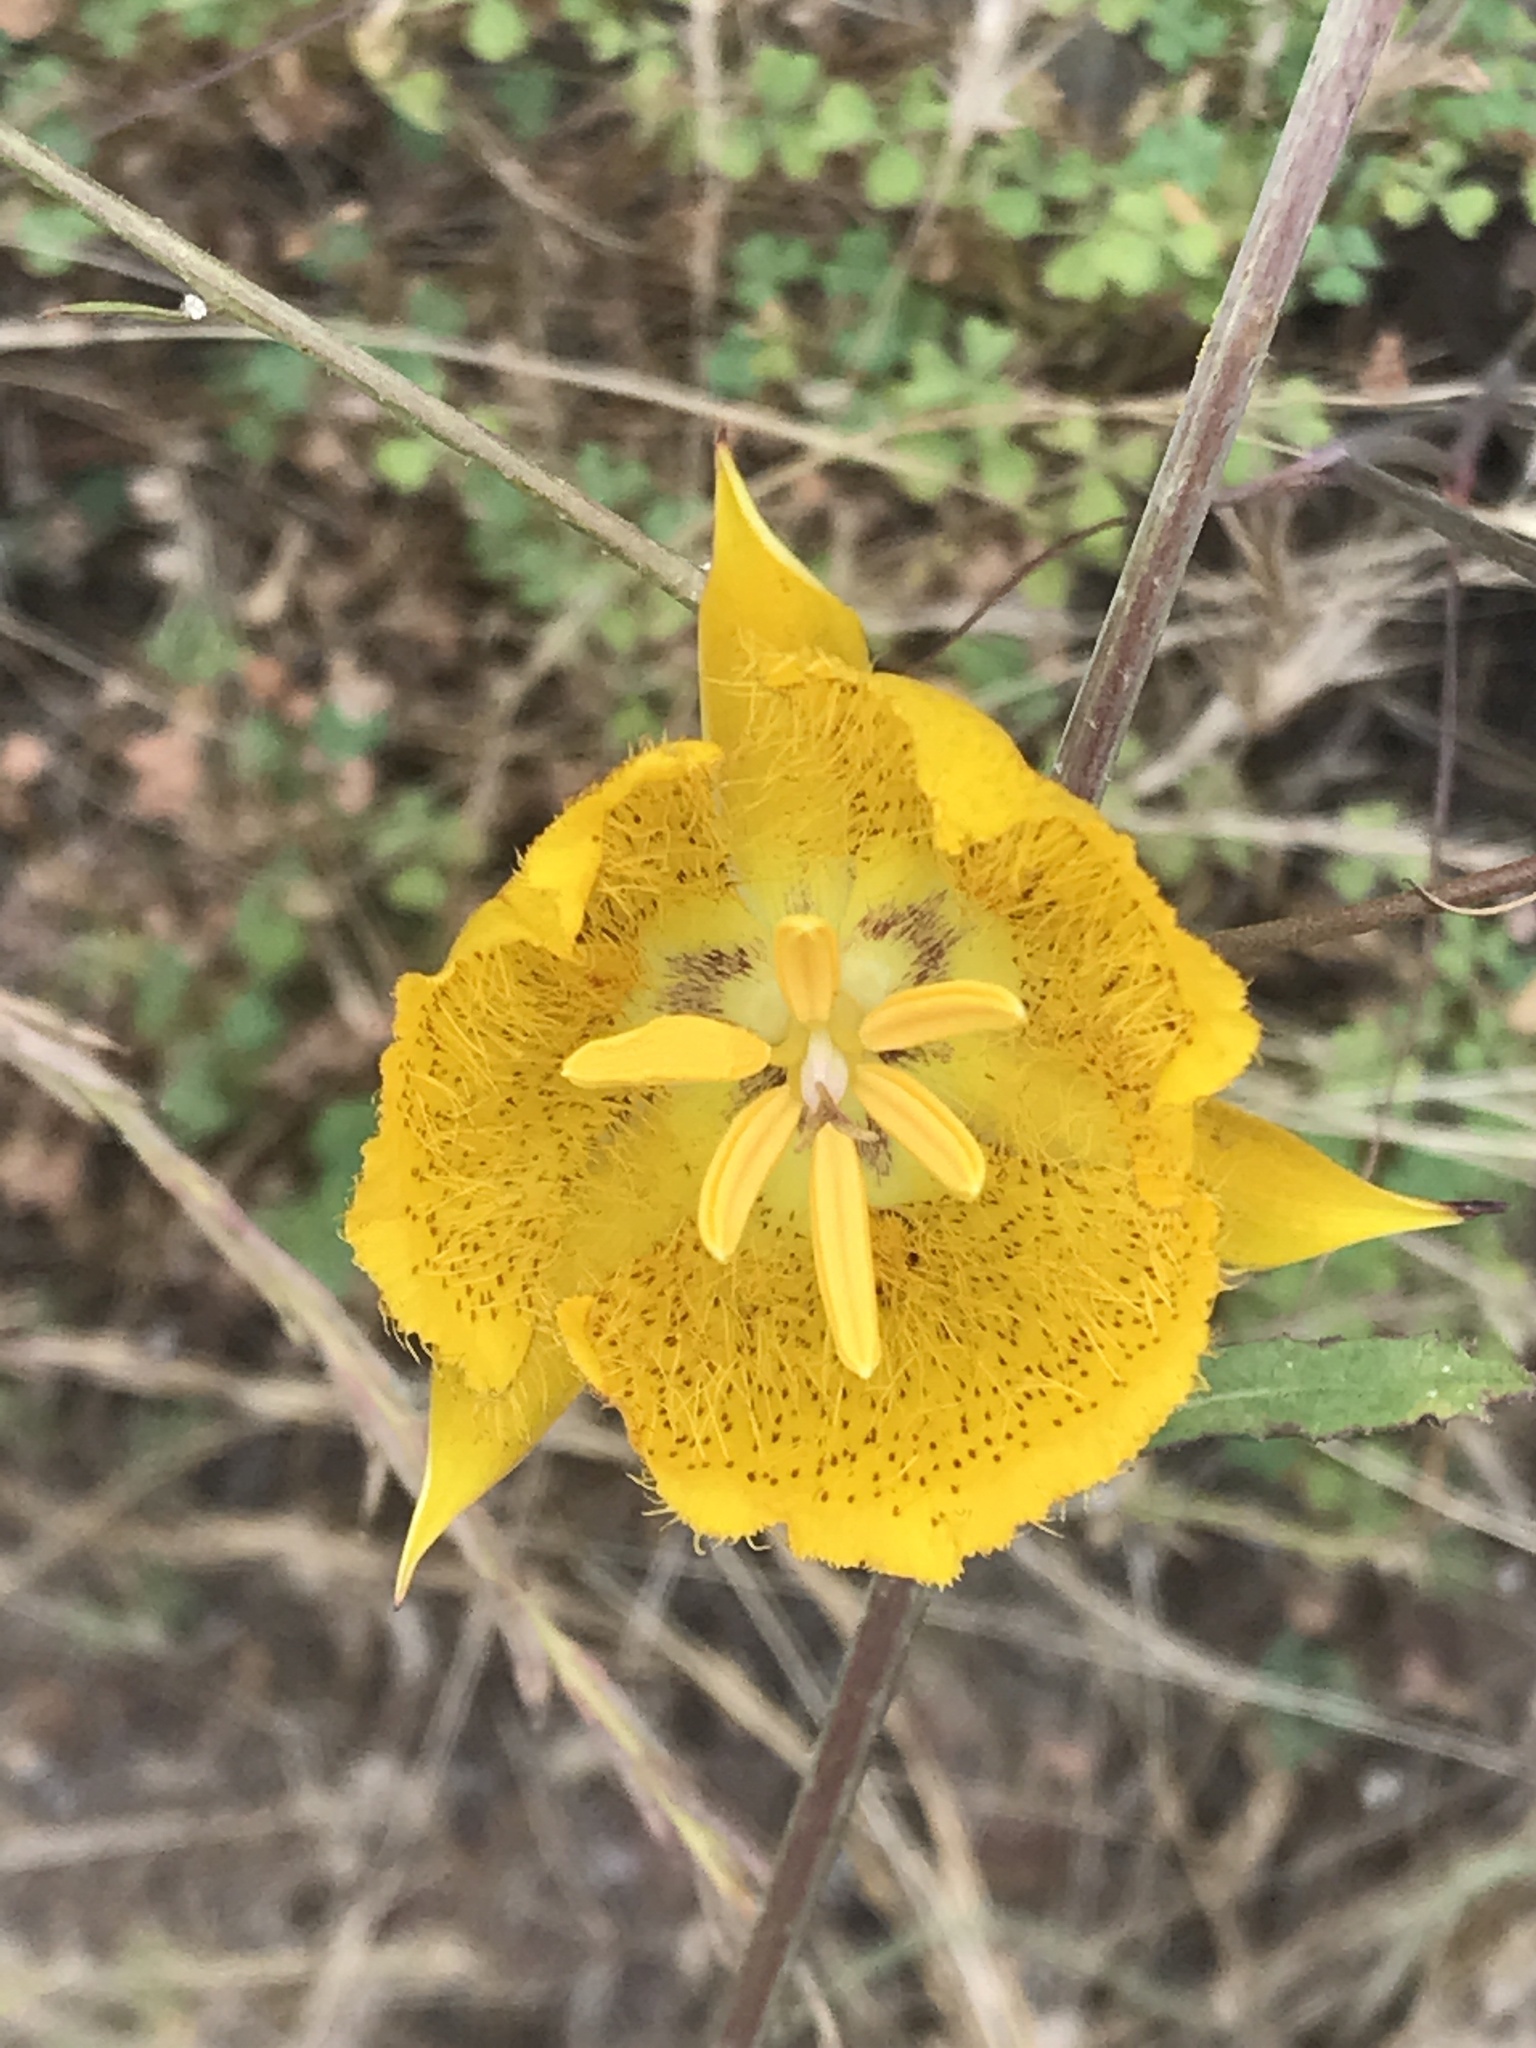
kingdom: Plantae
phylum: Tracheophyta
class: Liliopsida
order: Liliales
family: Liliaceae
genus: Calochortus
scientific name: Calochortus weedii
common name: Weed's mariposa-lily
